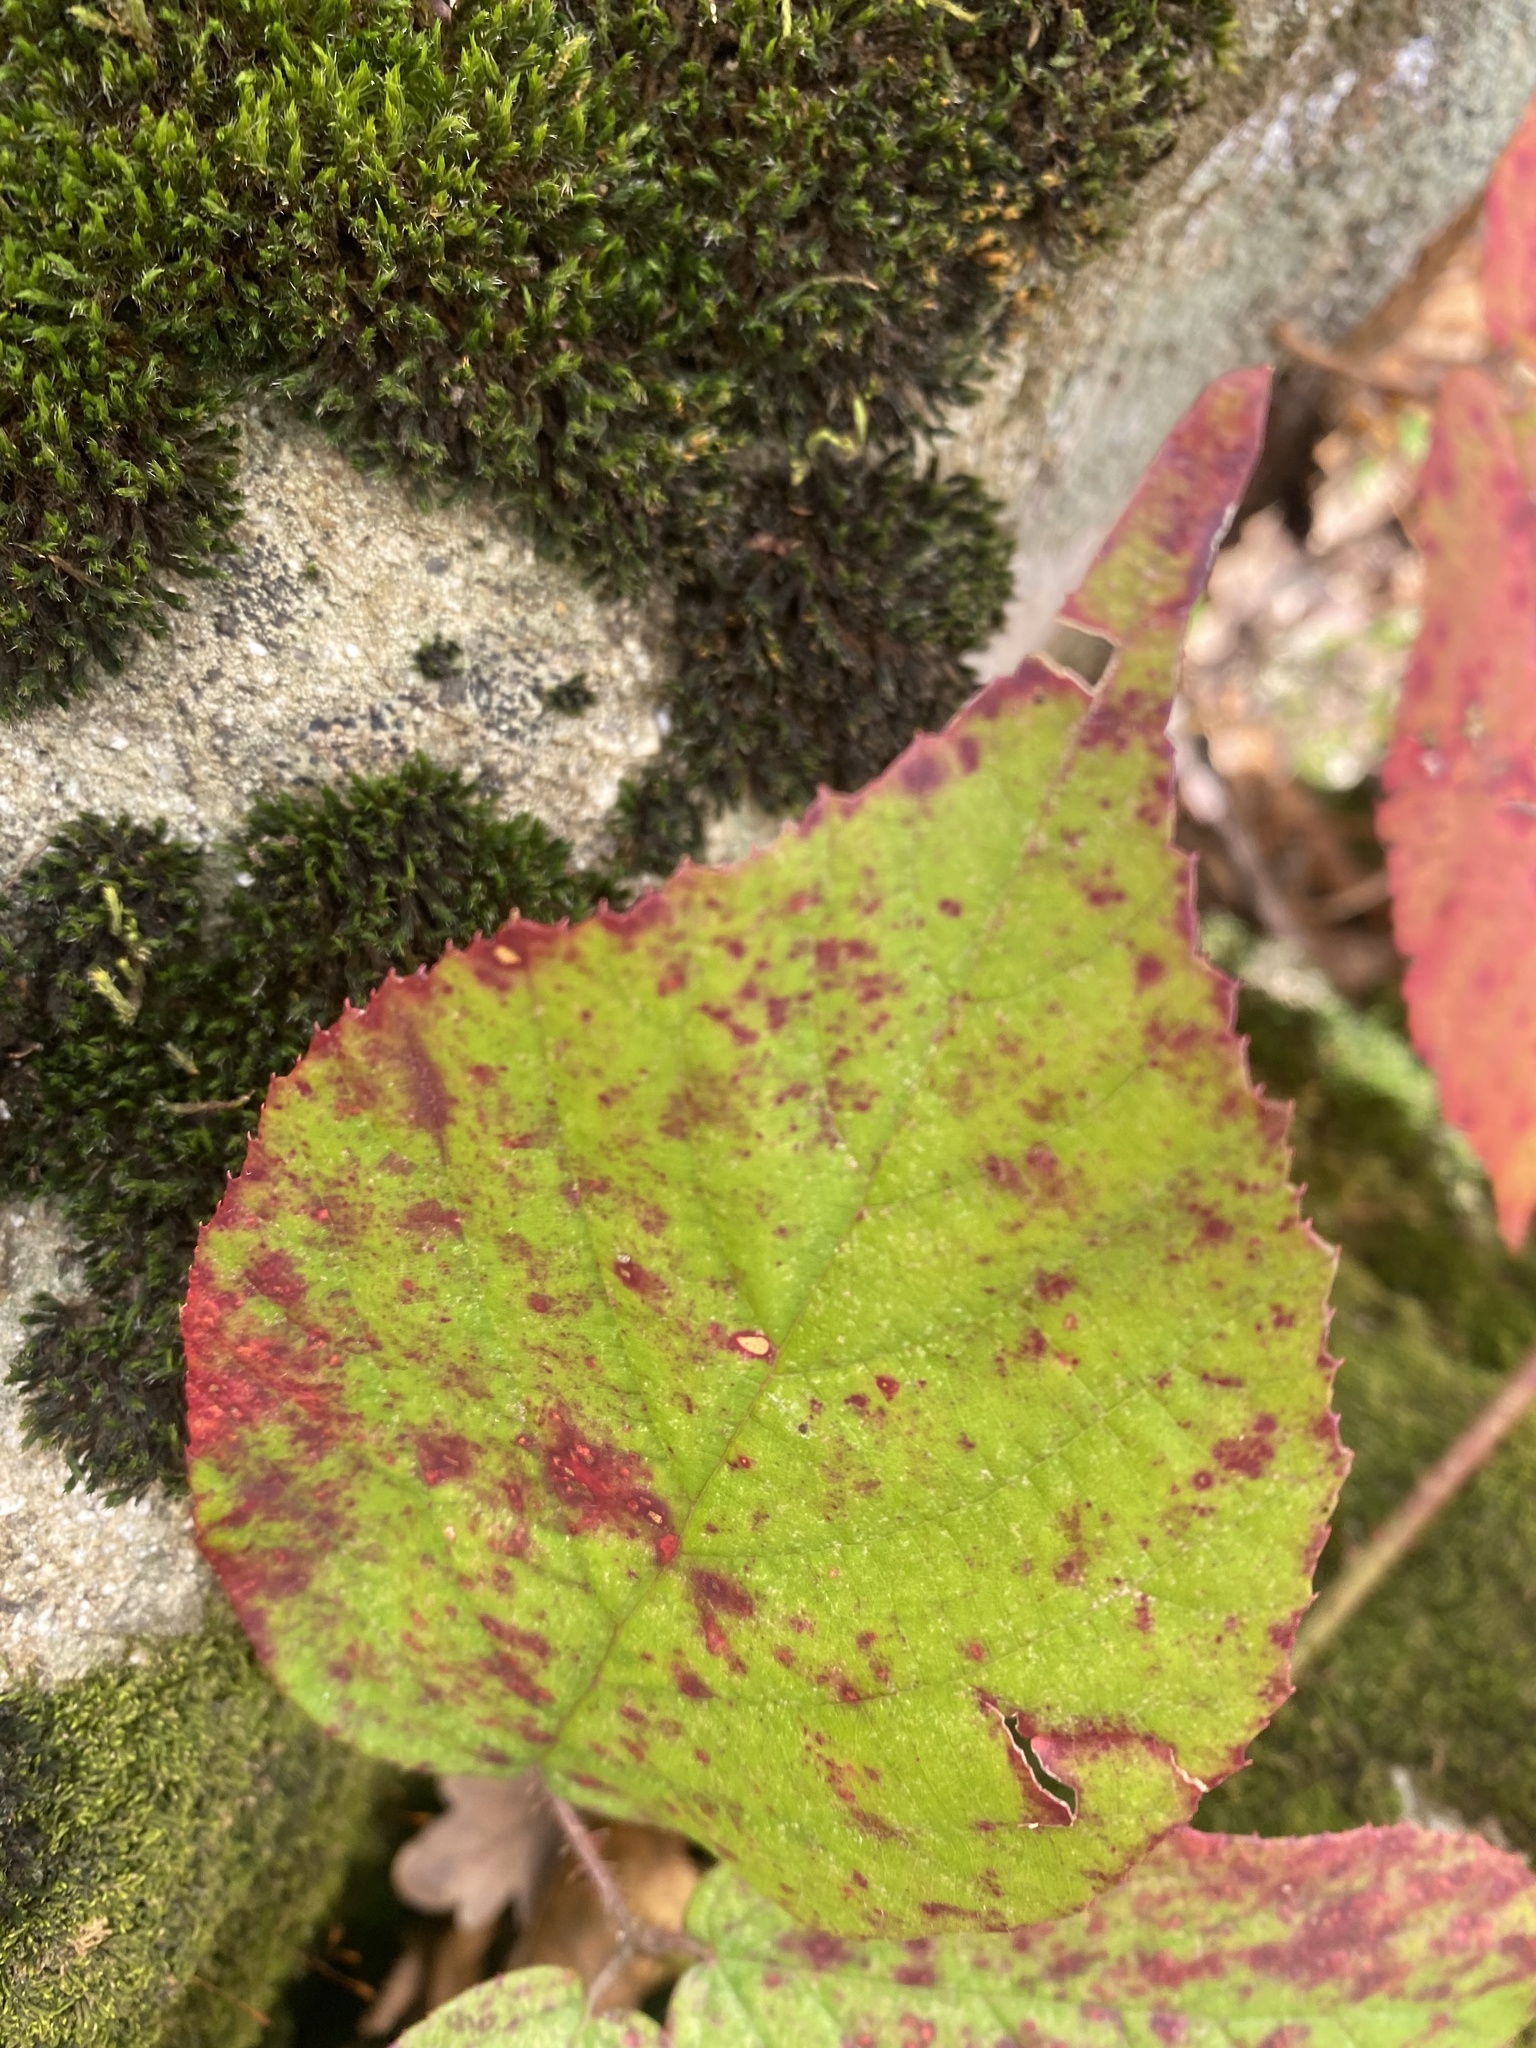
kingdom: Plantae
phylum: Tracheophyta
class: Magnoliopsida
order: Rosales
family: Rosaceae
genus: Rubus
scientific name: Rubus hirtus
